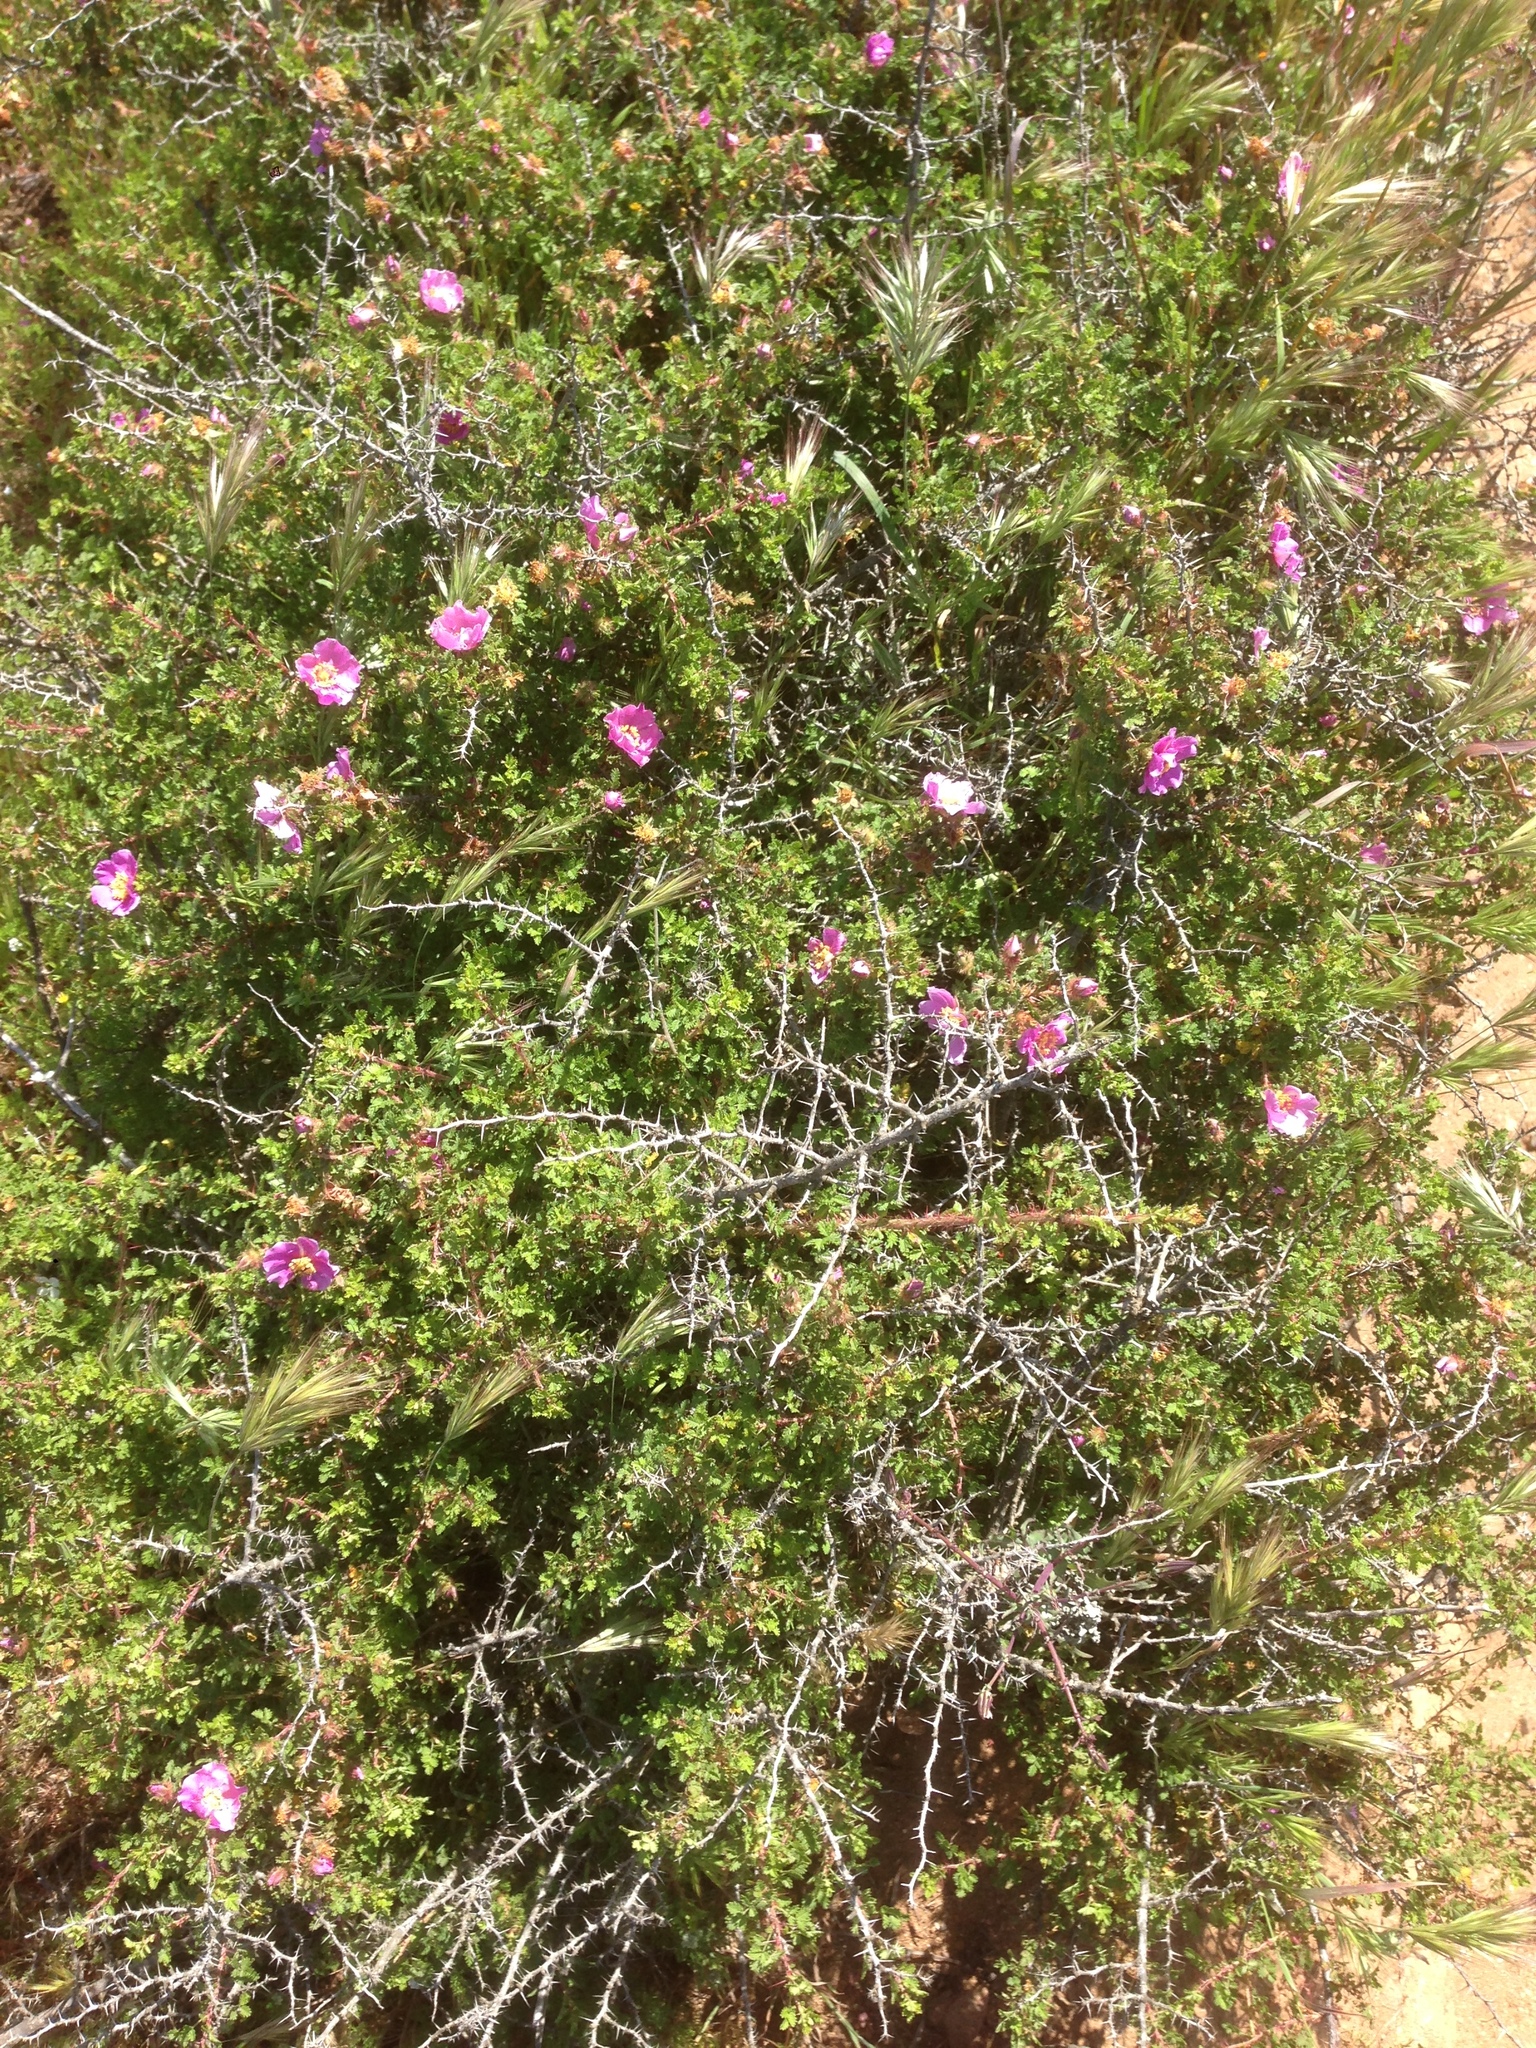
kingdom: Plantae
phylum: Tracheophyta
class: Magnoliopsida
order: Rosales
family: Rosaceae
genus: Rosa
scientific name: Rosa minutifolia
